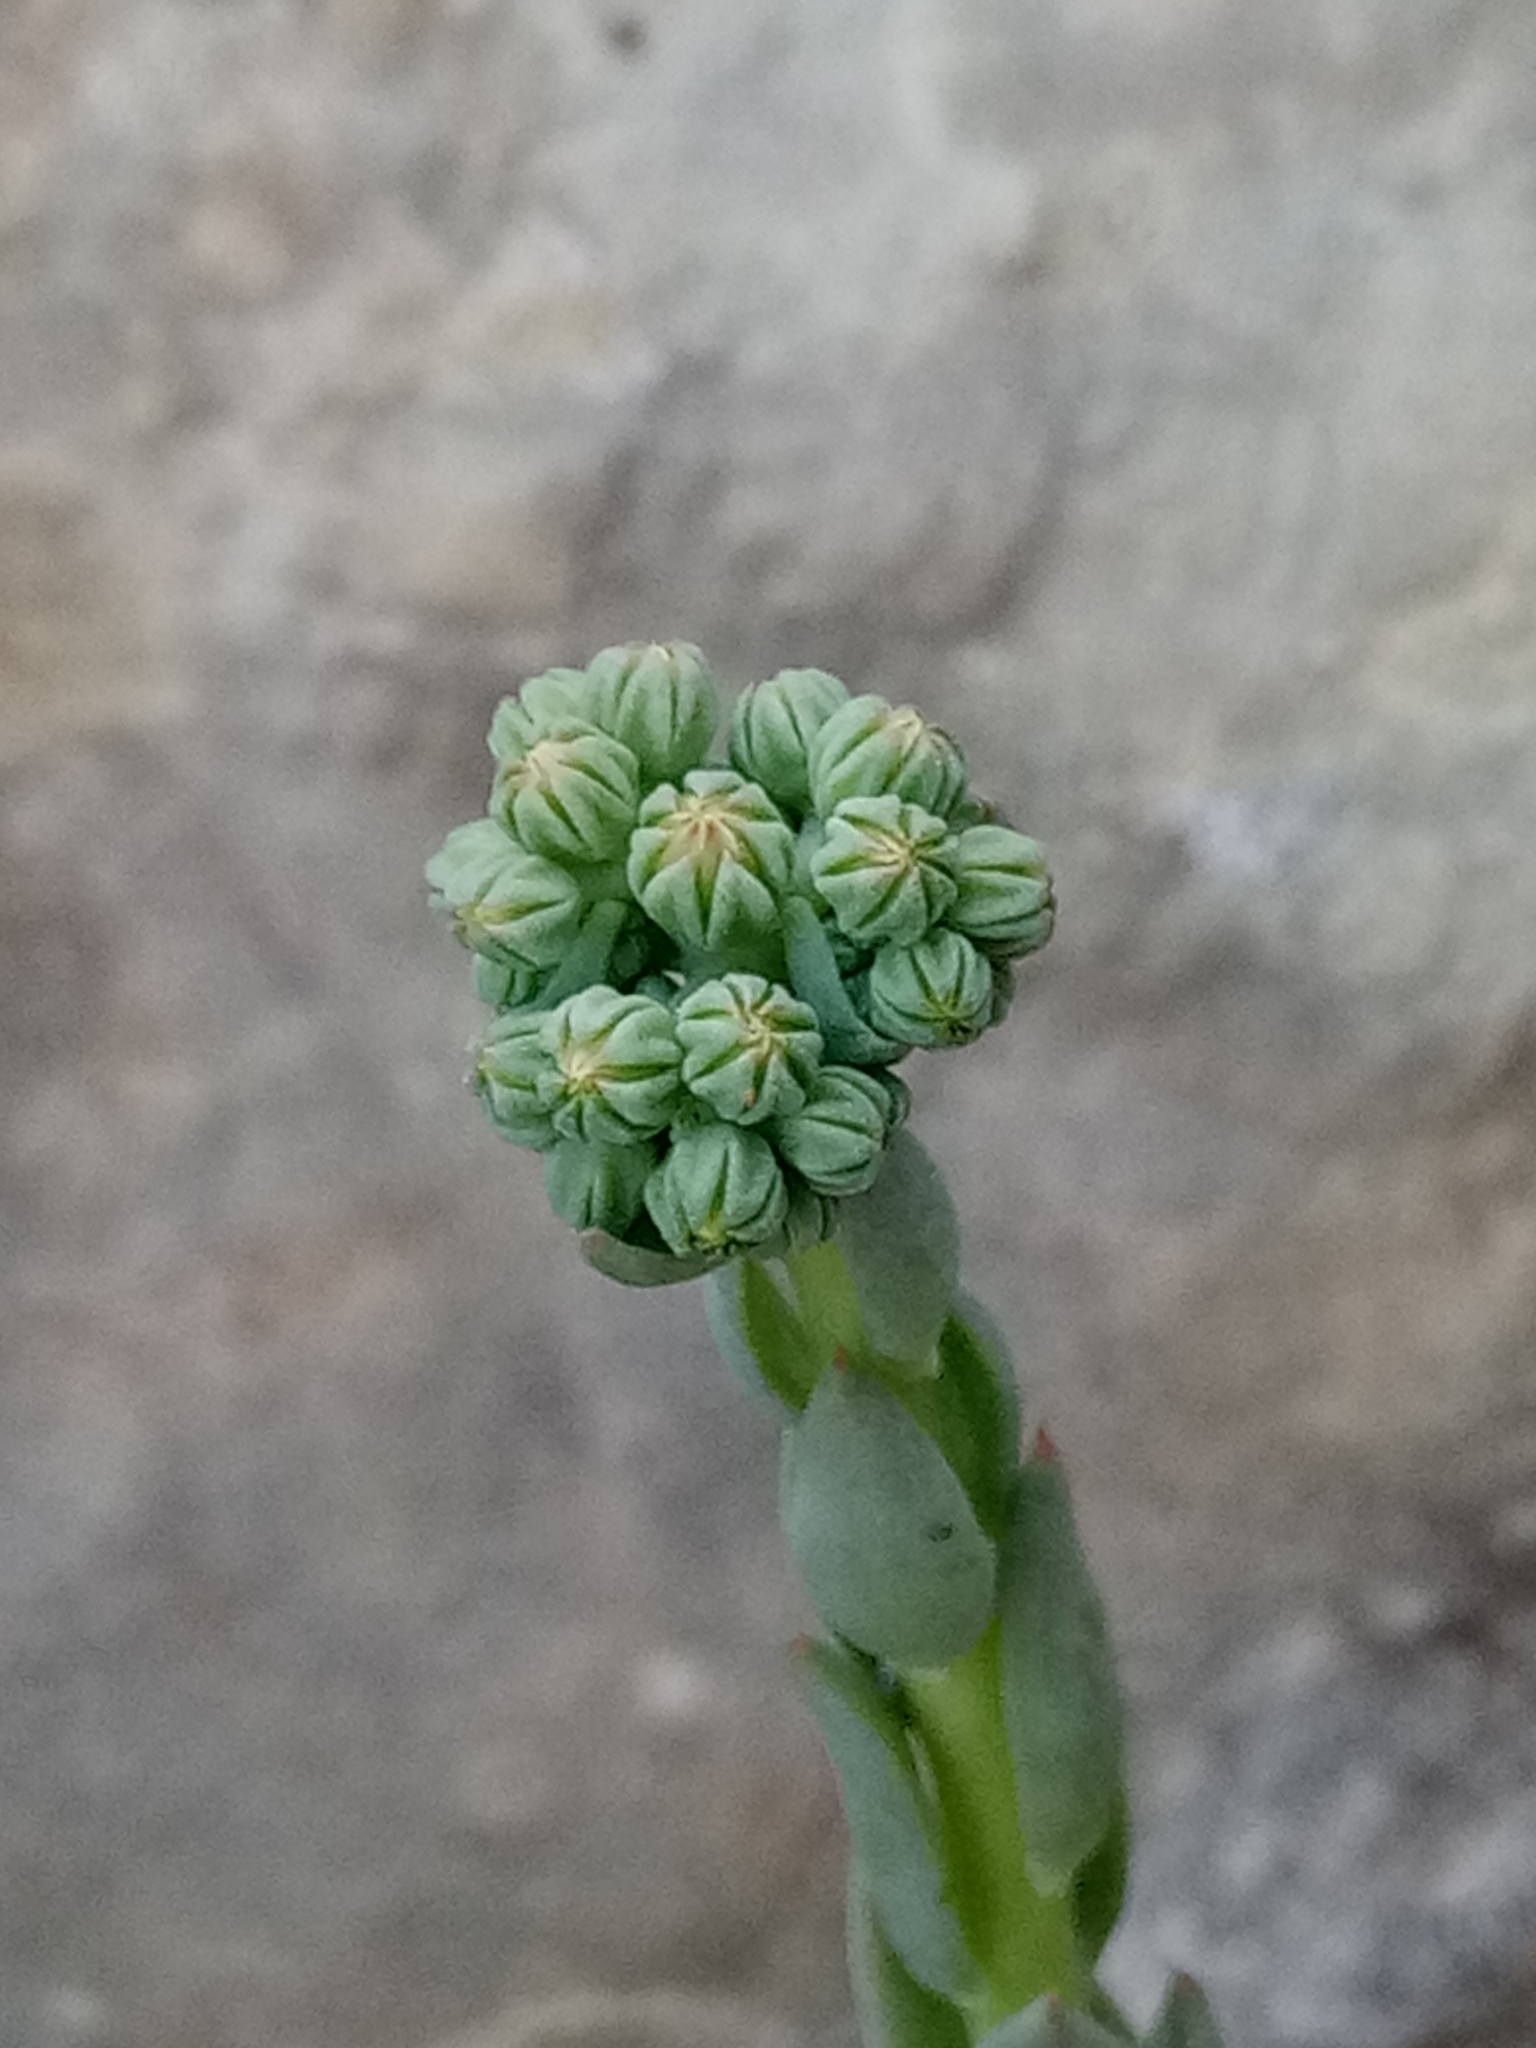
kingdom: Plantae
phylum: Tracheophyta
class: Magnoliopsida
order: Saxifragales
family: Crassulaceae
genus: Petrosedum
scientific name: Petrosedum sediforme
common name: Pale stonecrop
